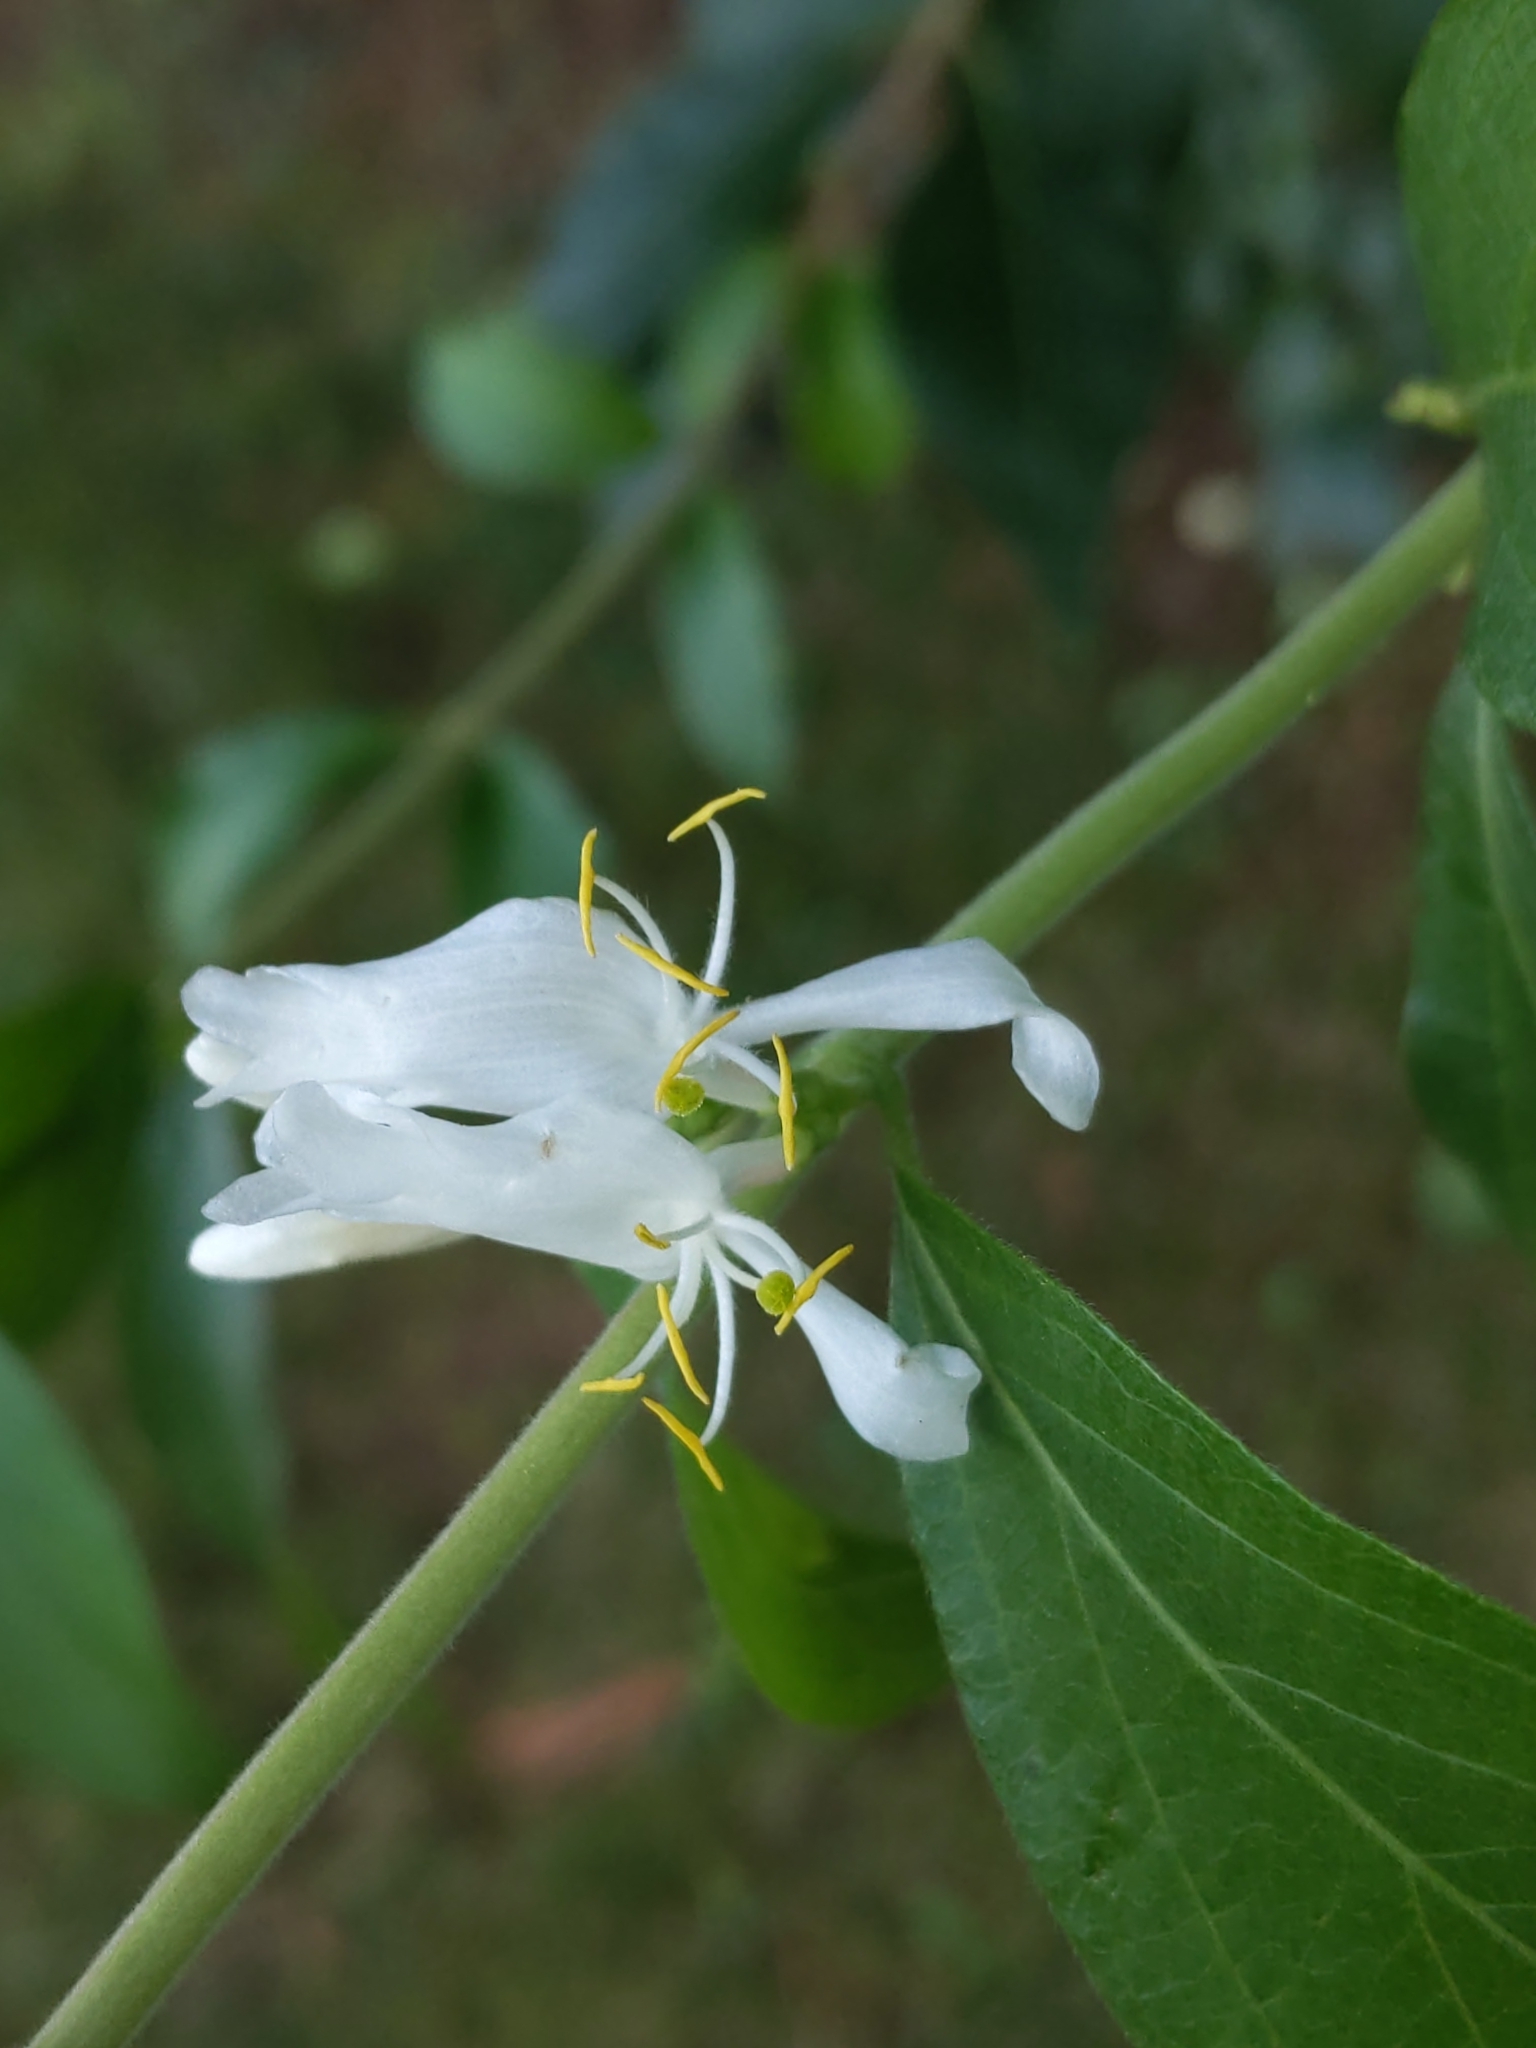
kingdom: Plantae
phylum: Tracheophyta
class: Magnoliopsida
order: Dipsacales
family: Caprifoliaceae
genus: Lonicera
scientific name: Lonicera maackii
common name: Amur honeysuckle
